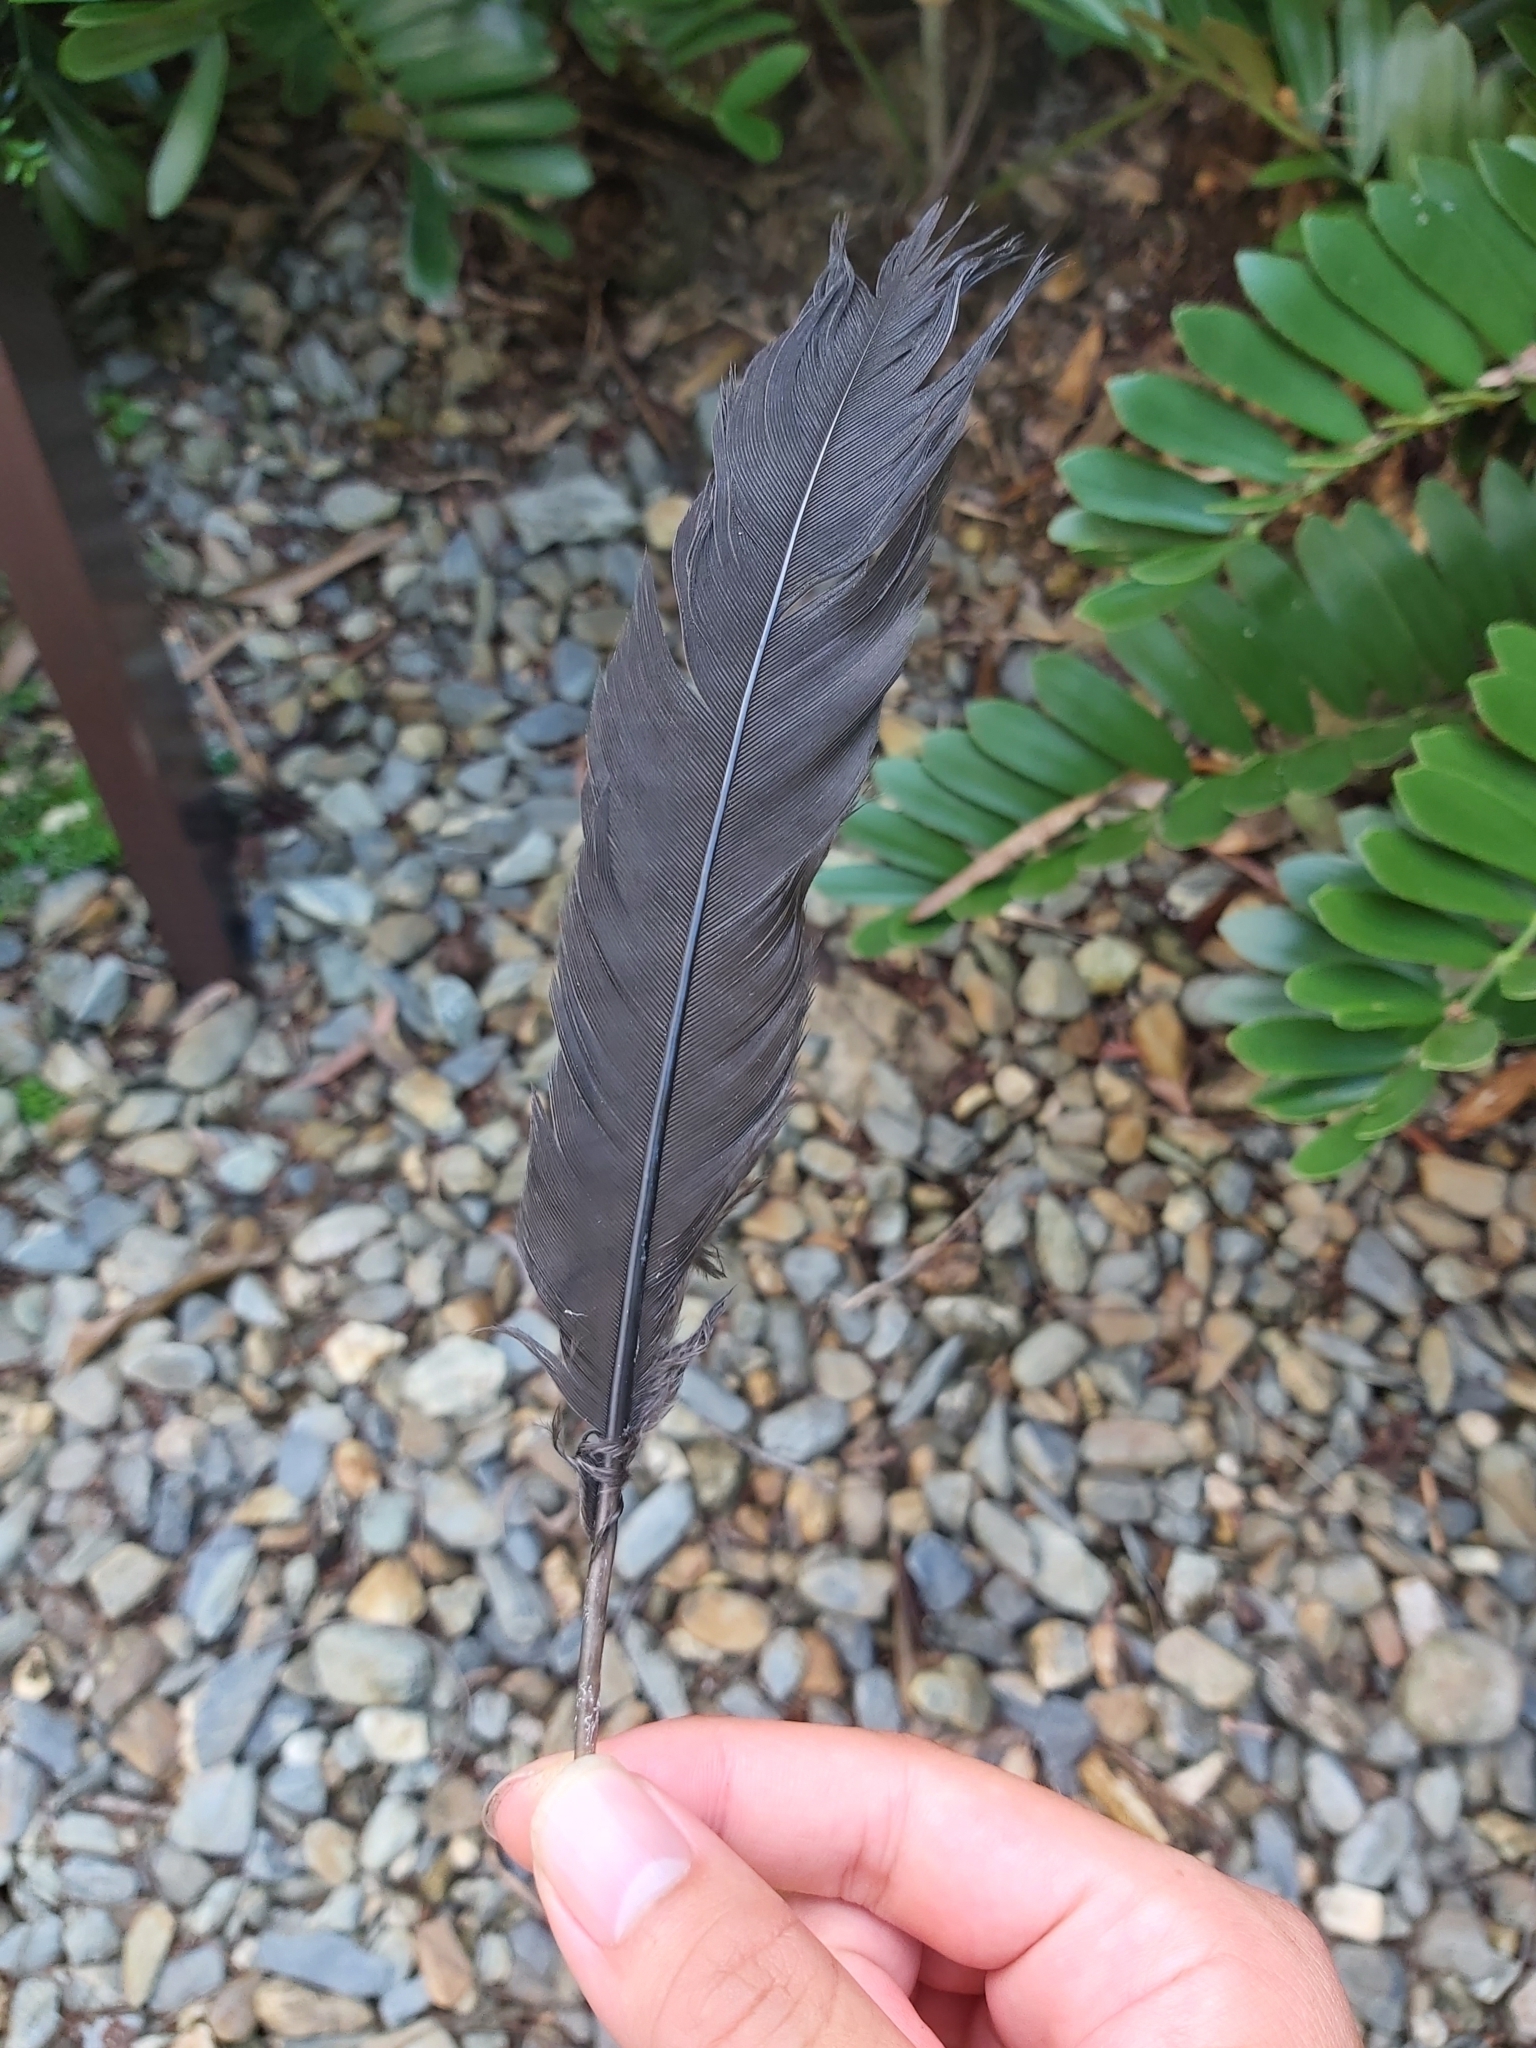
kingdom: Animalia
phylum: Chordata
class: Aves
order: Galliformes
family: Megapodiidae
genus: Alectura
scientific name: Alectura lathami
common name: Australian brushturkey
